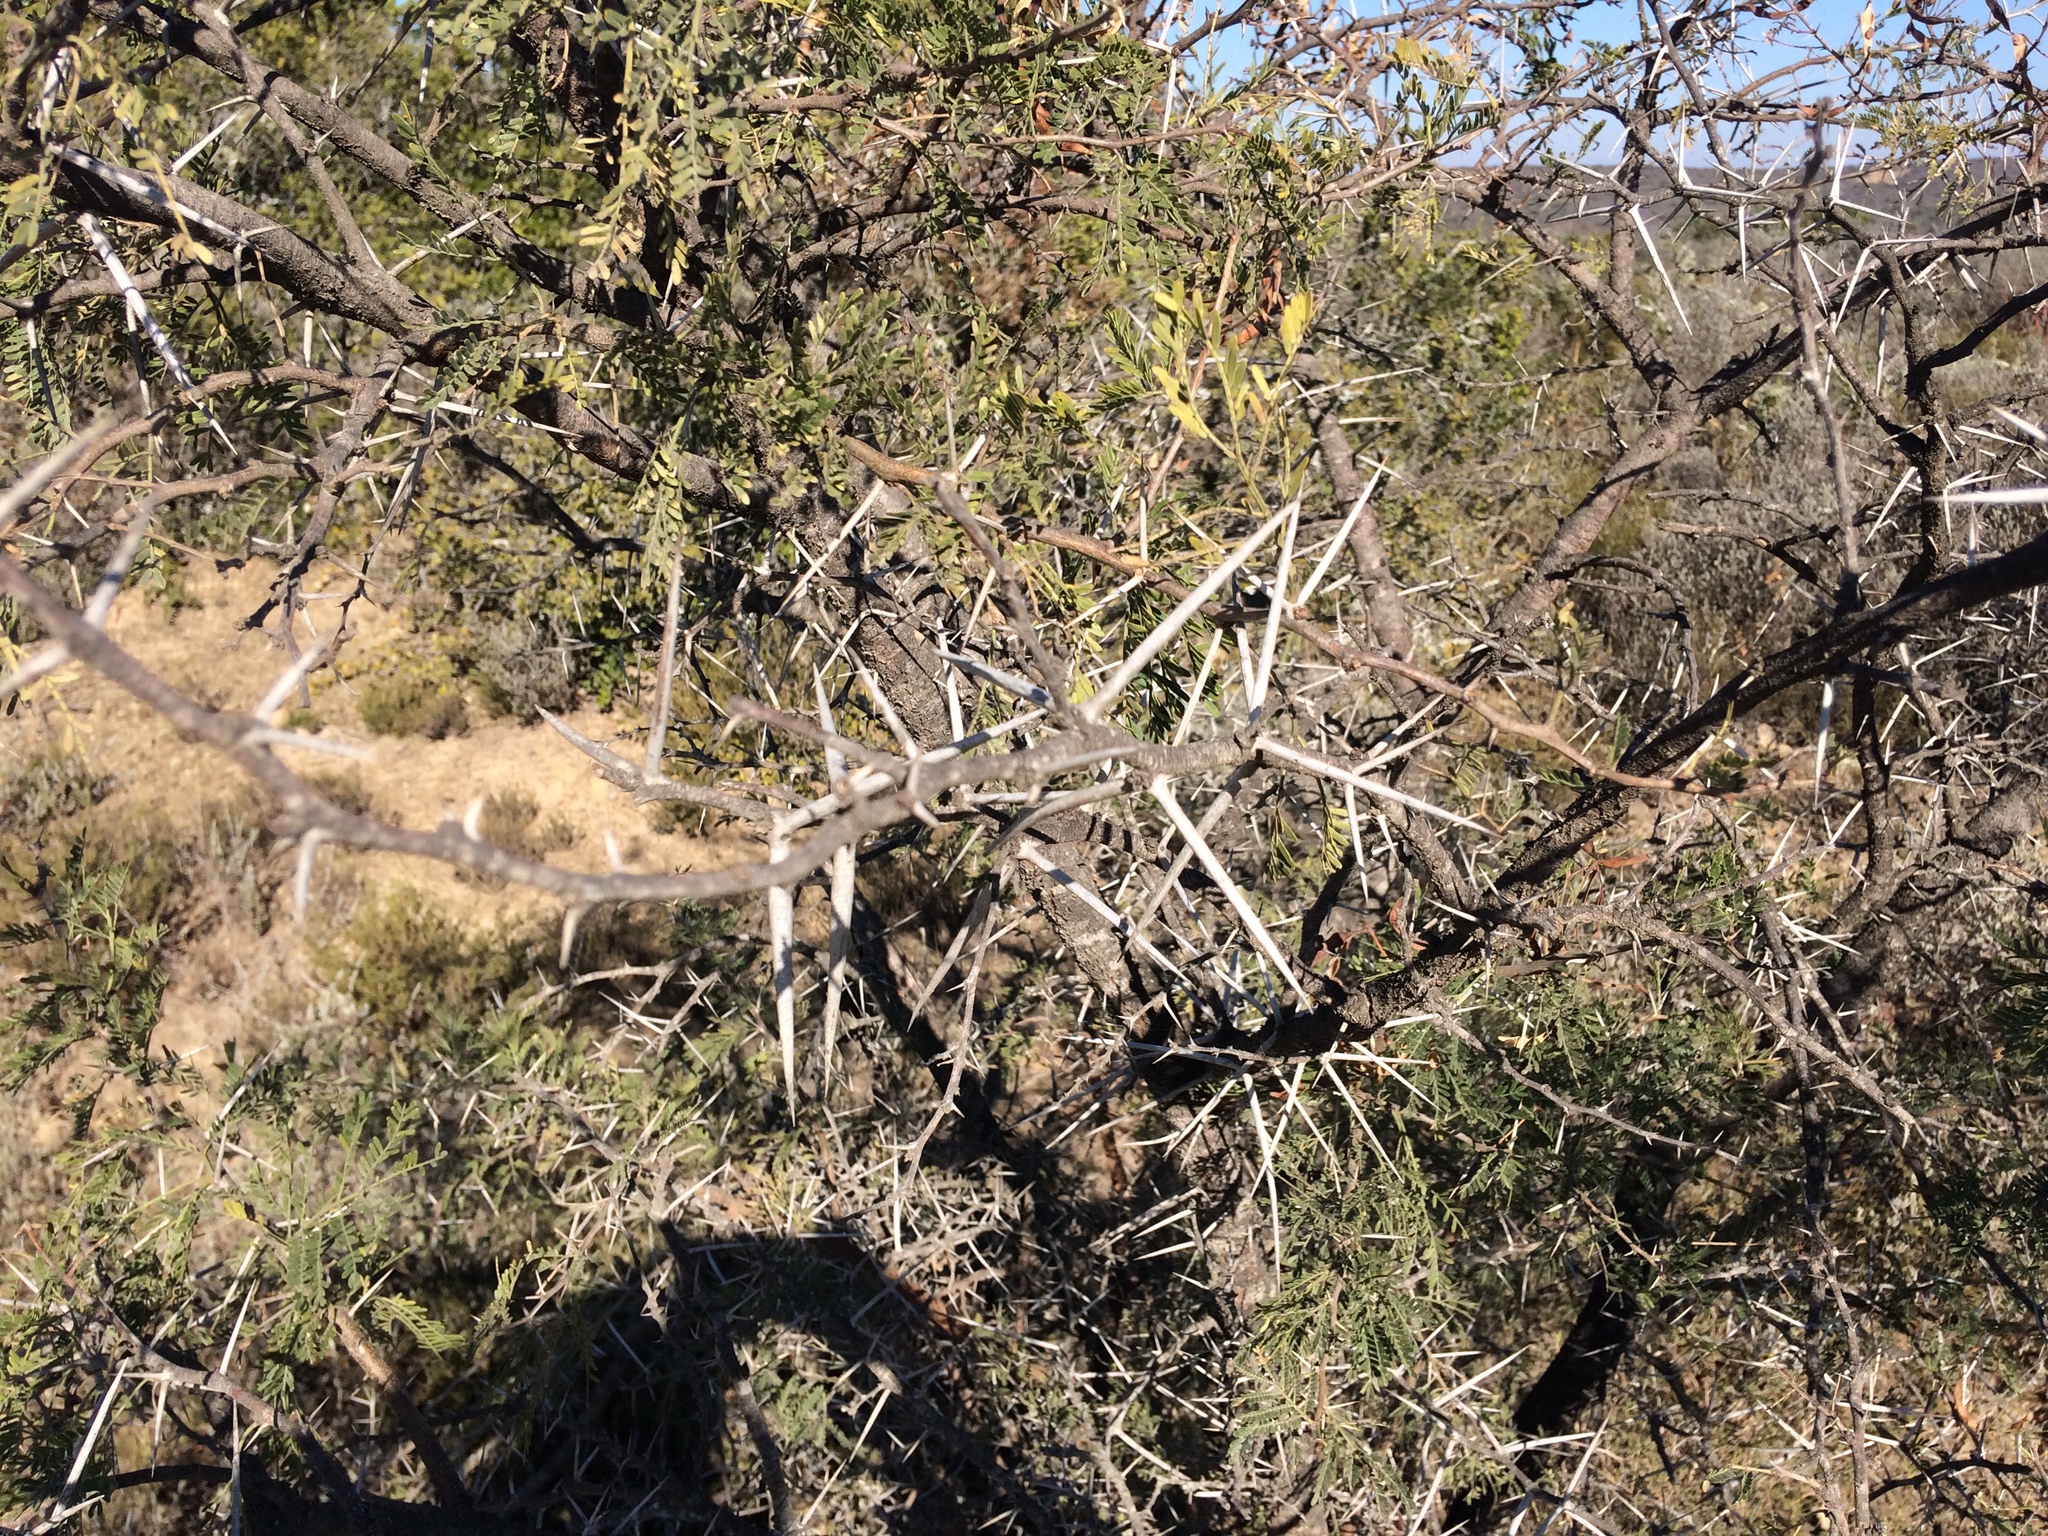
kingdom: Plantae
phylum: Tracheophyta
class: Magnoliopsida
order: Fabales
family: Fabaceae
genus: Vachellia
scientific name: Vachellia karroo
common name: Sweet thorn
